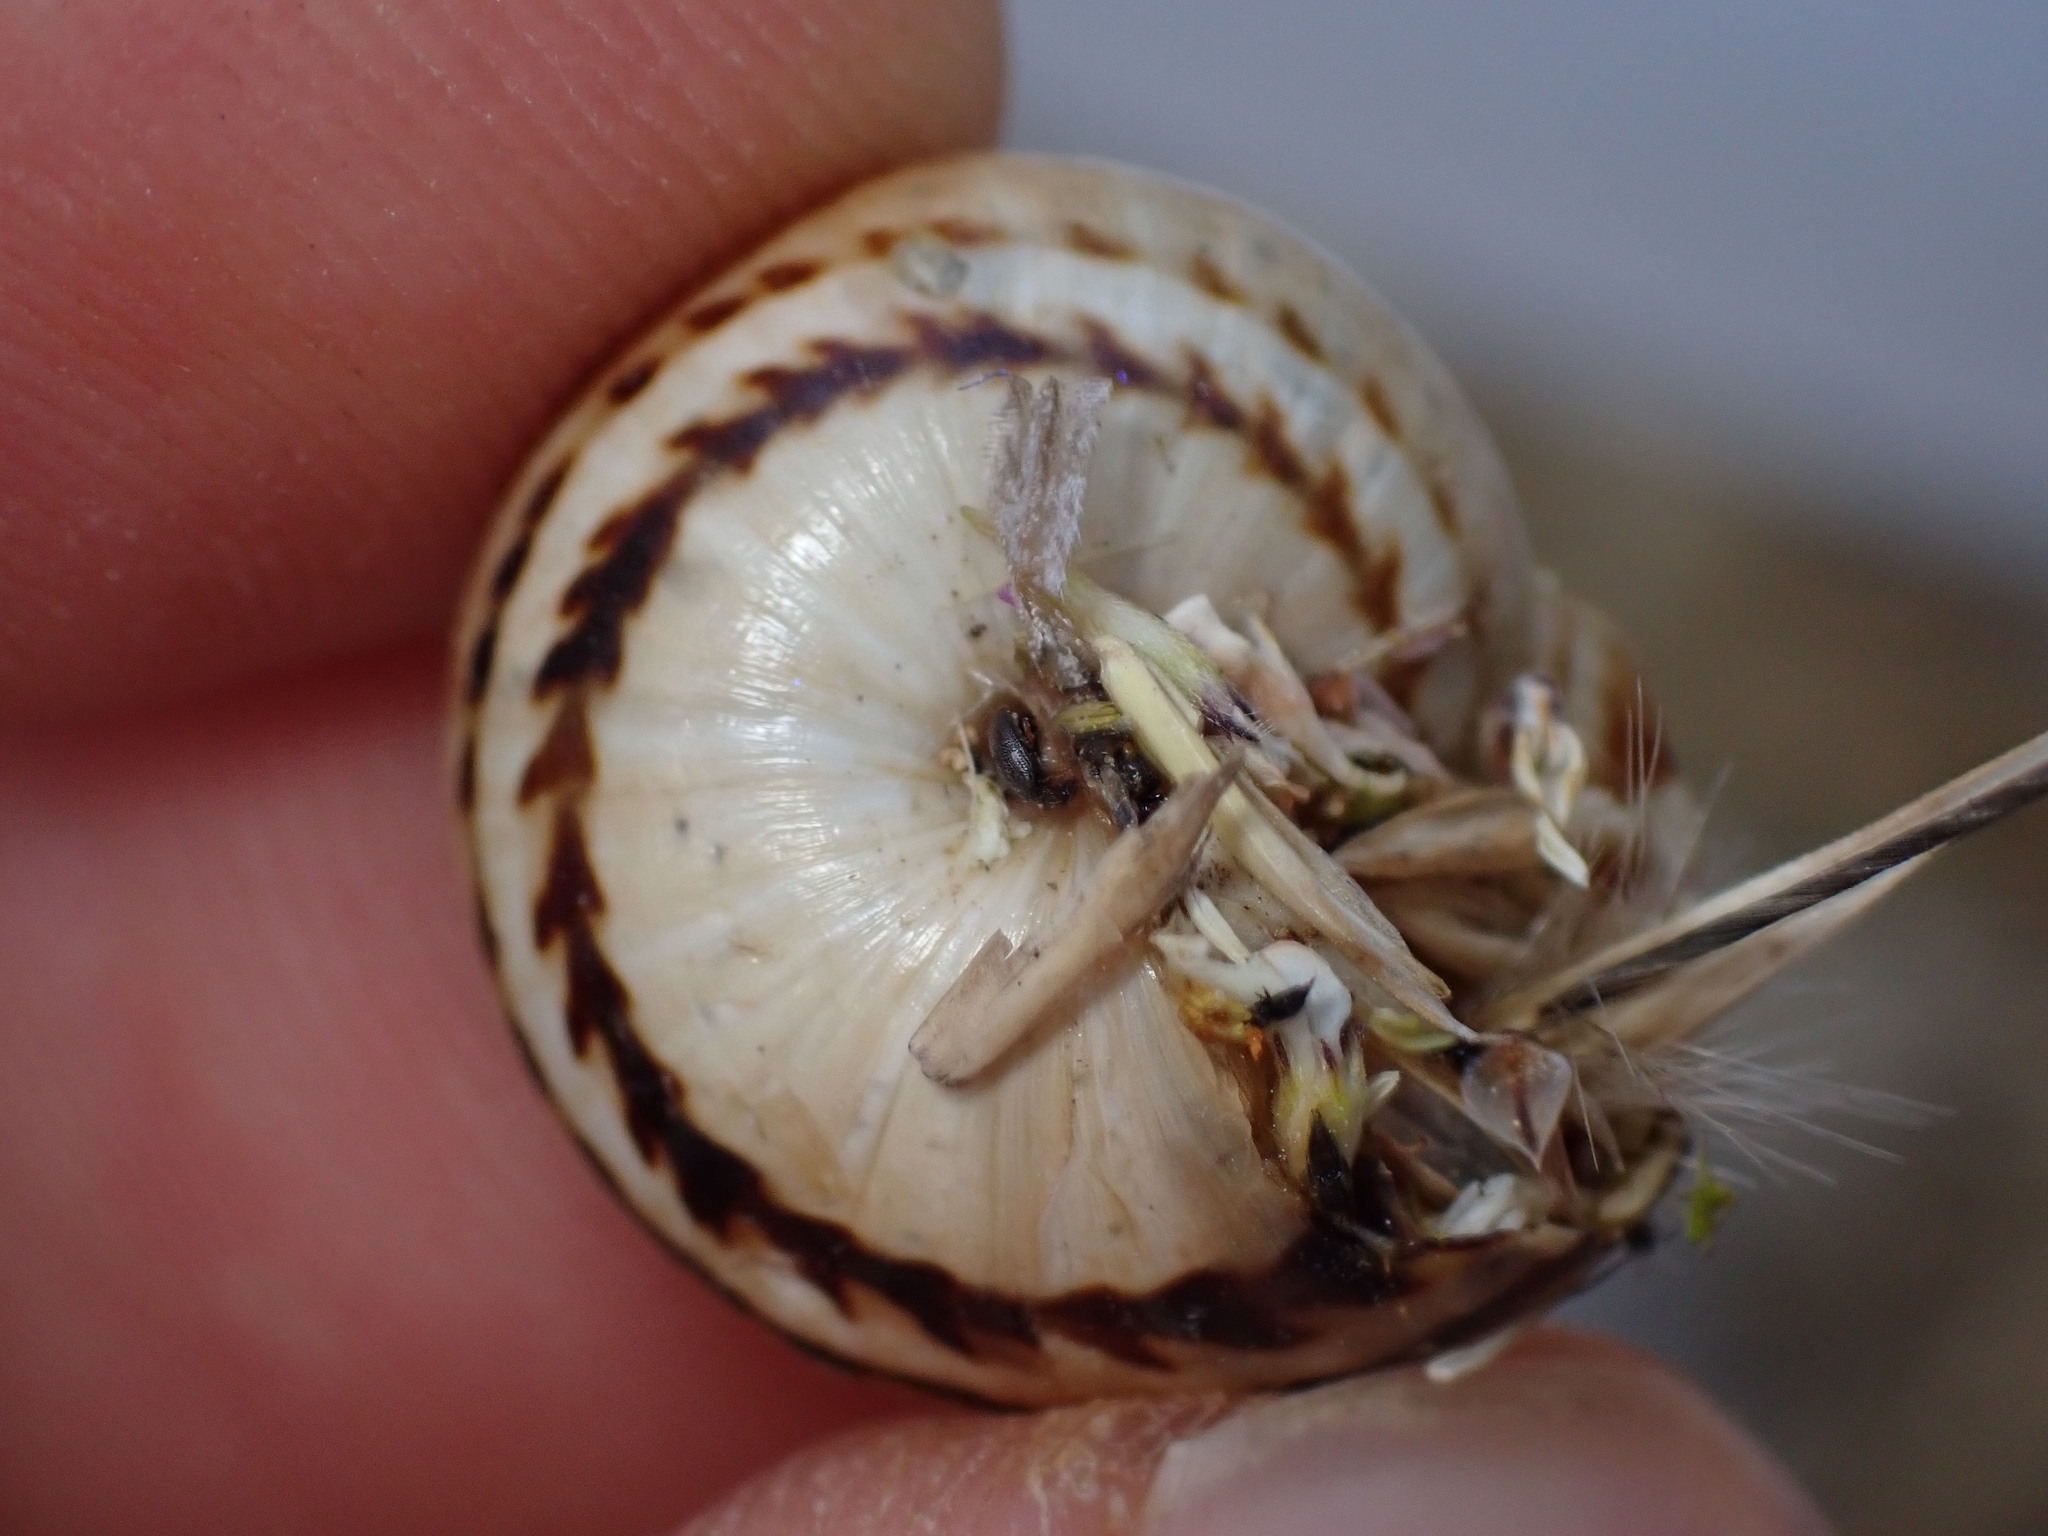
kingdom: Animalia
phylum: Mollusca
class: Gastropoda
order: Stylommatophora
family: Helicidae
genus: Theba
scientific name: Theba pisana
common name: White snail
